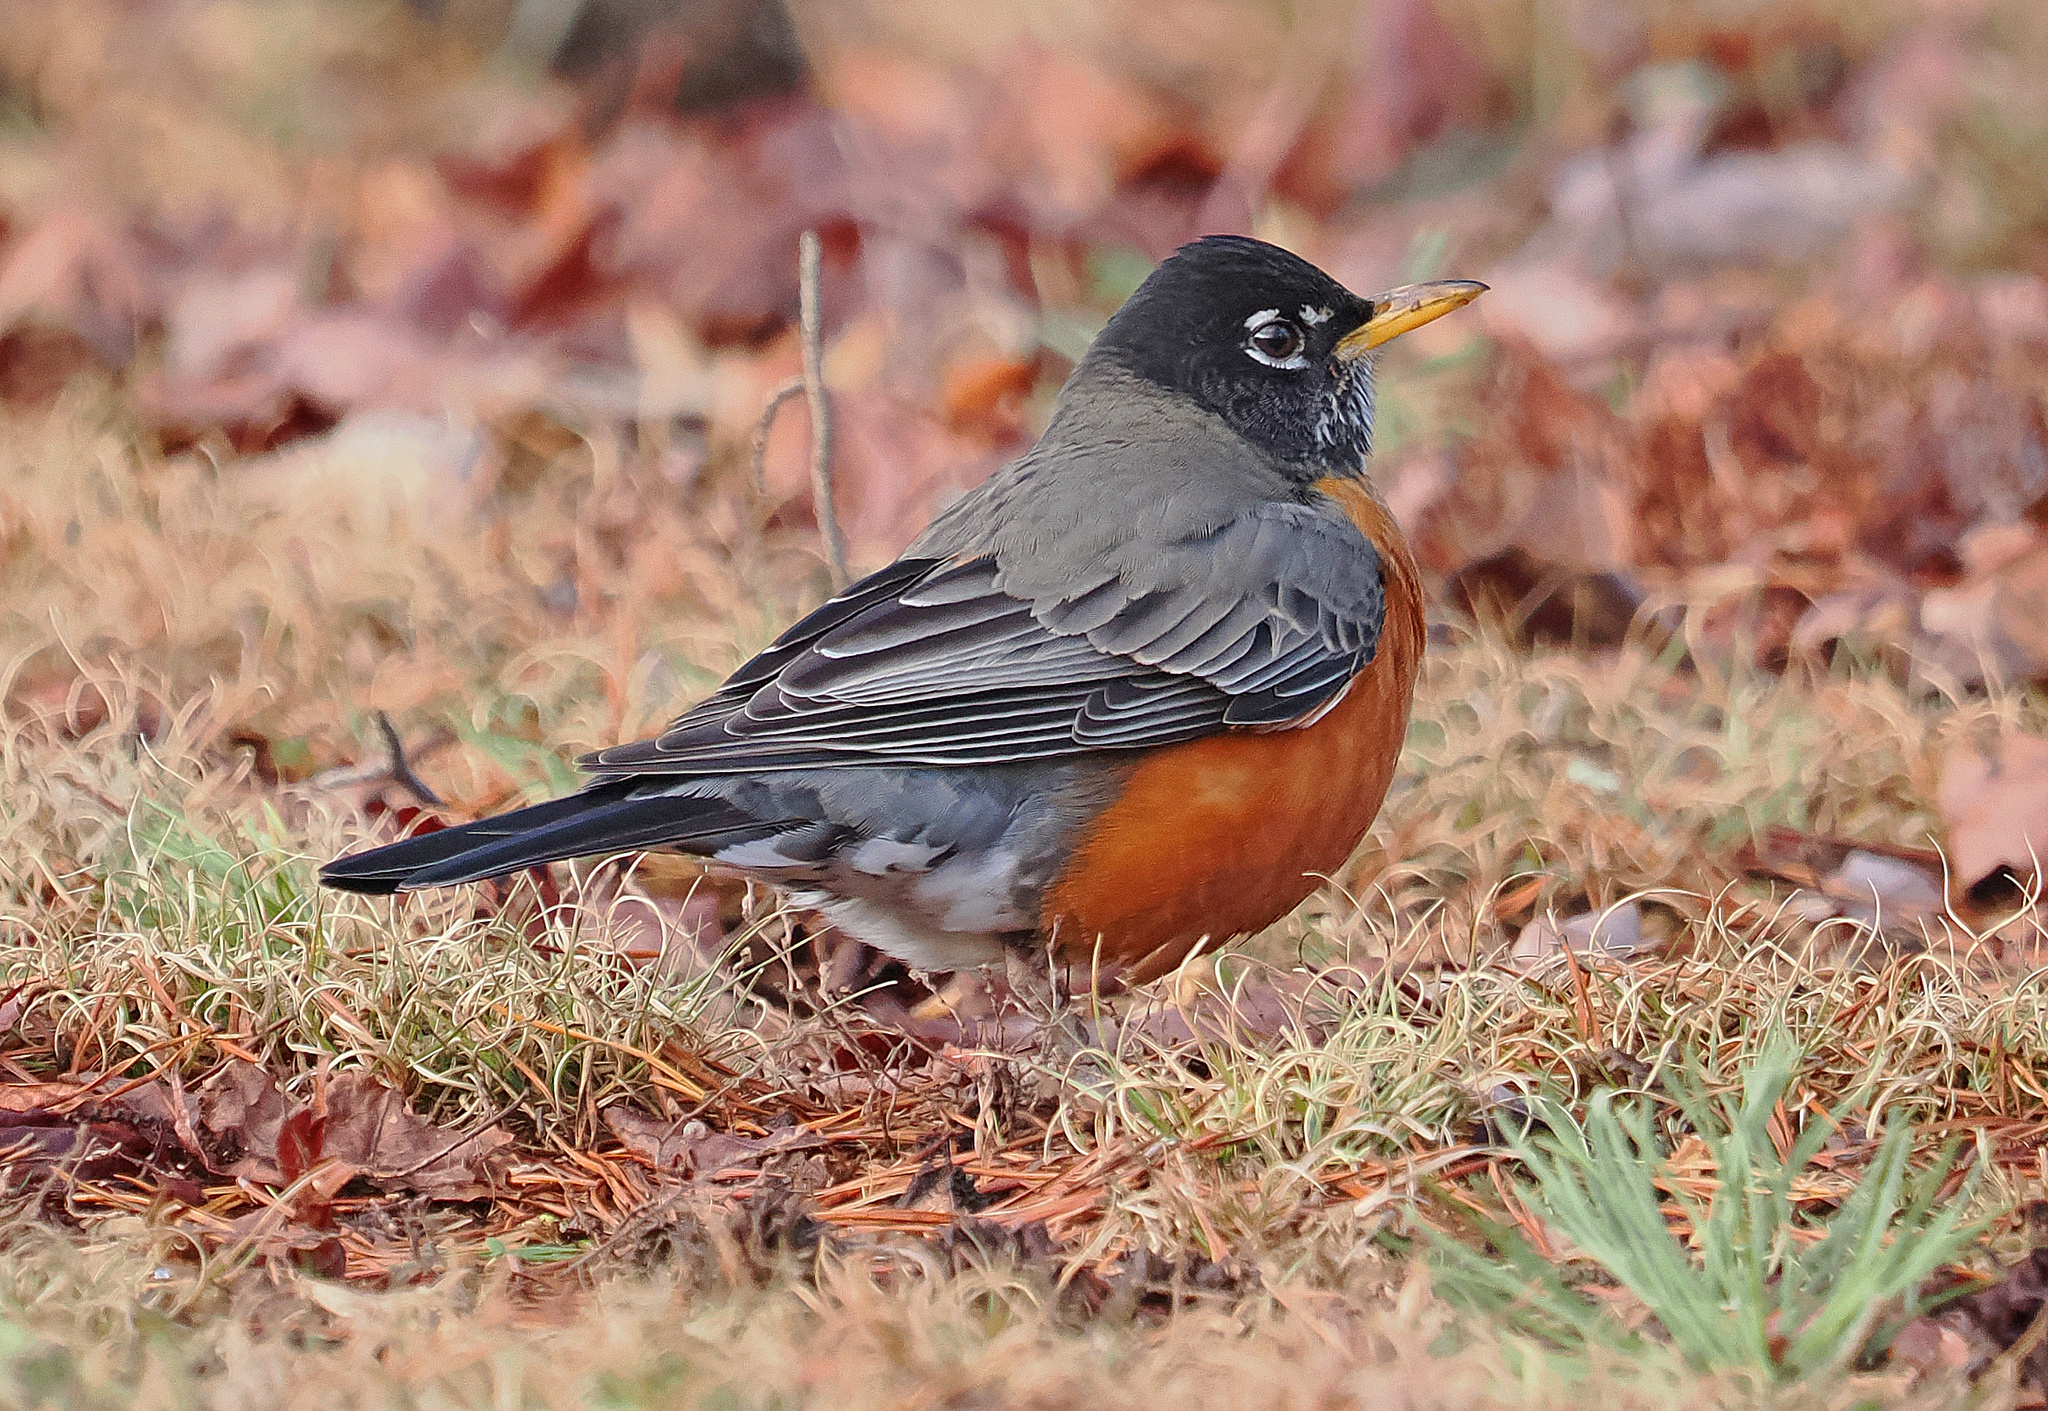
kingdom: Animalia
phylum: Chordata
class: Aves
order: Passeriformes
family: Turdidae
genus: Turdus
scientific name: Turdus migratorius
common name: American robin
